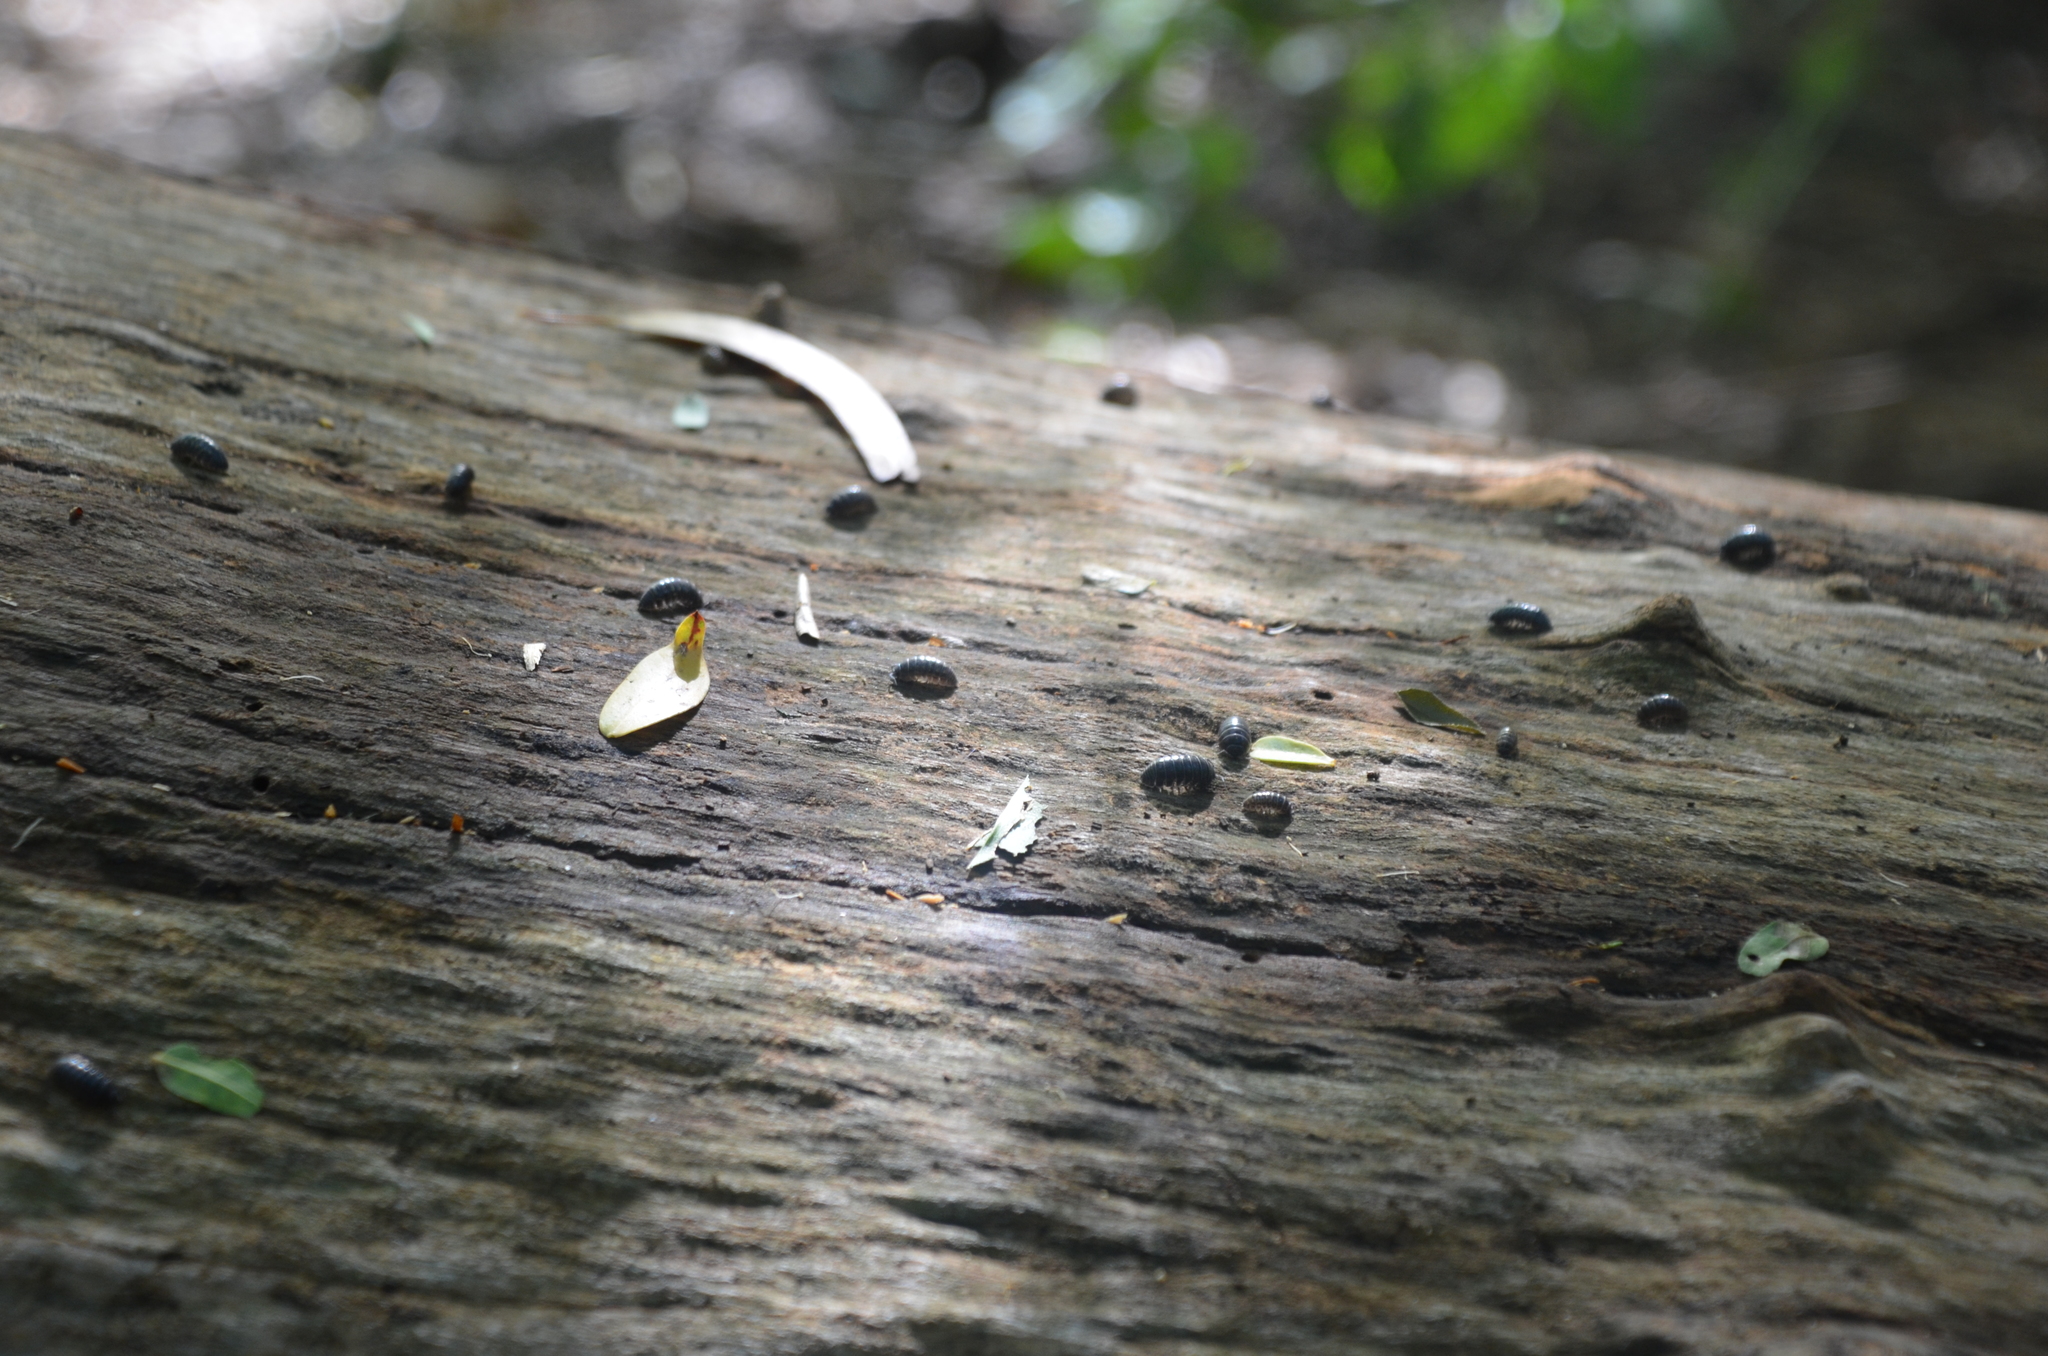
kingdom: Animalia
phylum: Arthropoda
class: Malacostraca
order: Isopoda
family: Armadillidiidae
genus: Armadillidium
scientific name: Armadillidium vulgare
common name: Common pill woodlouse
